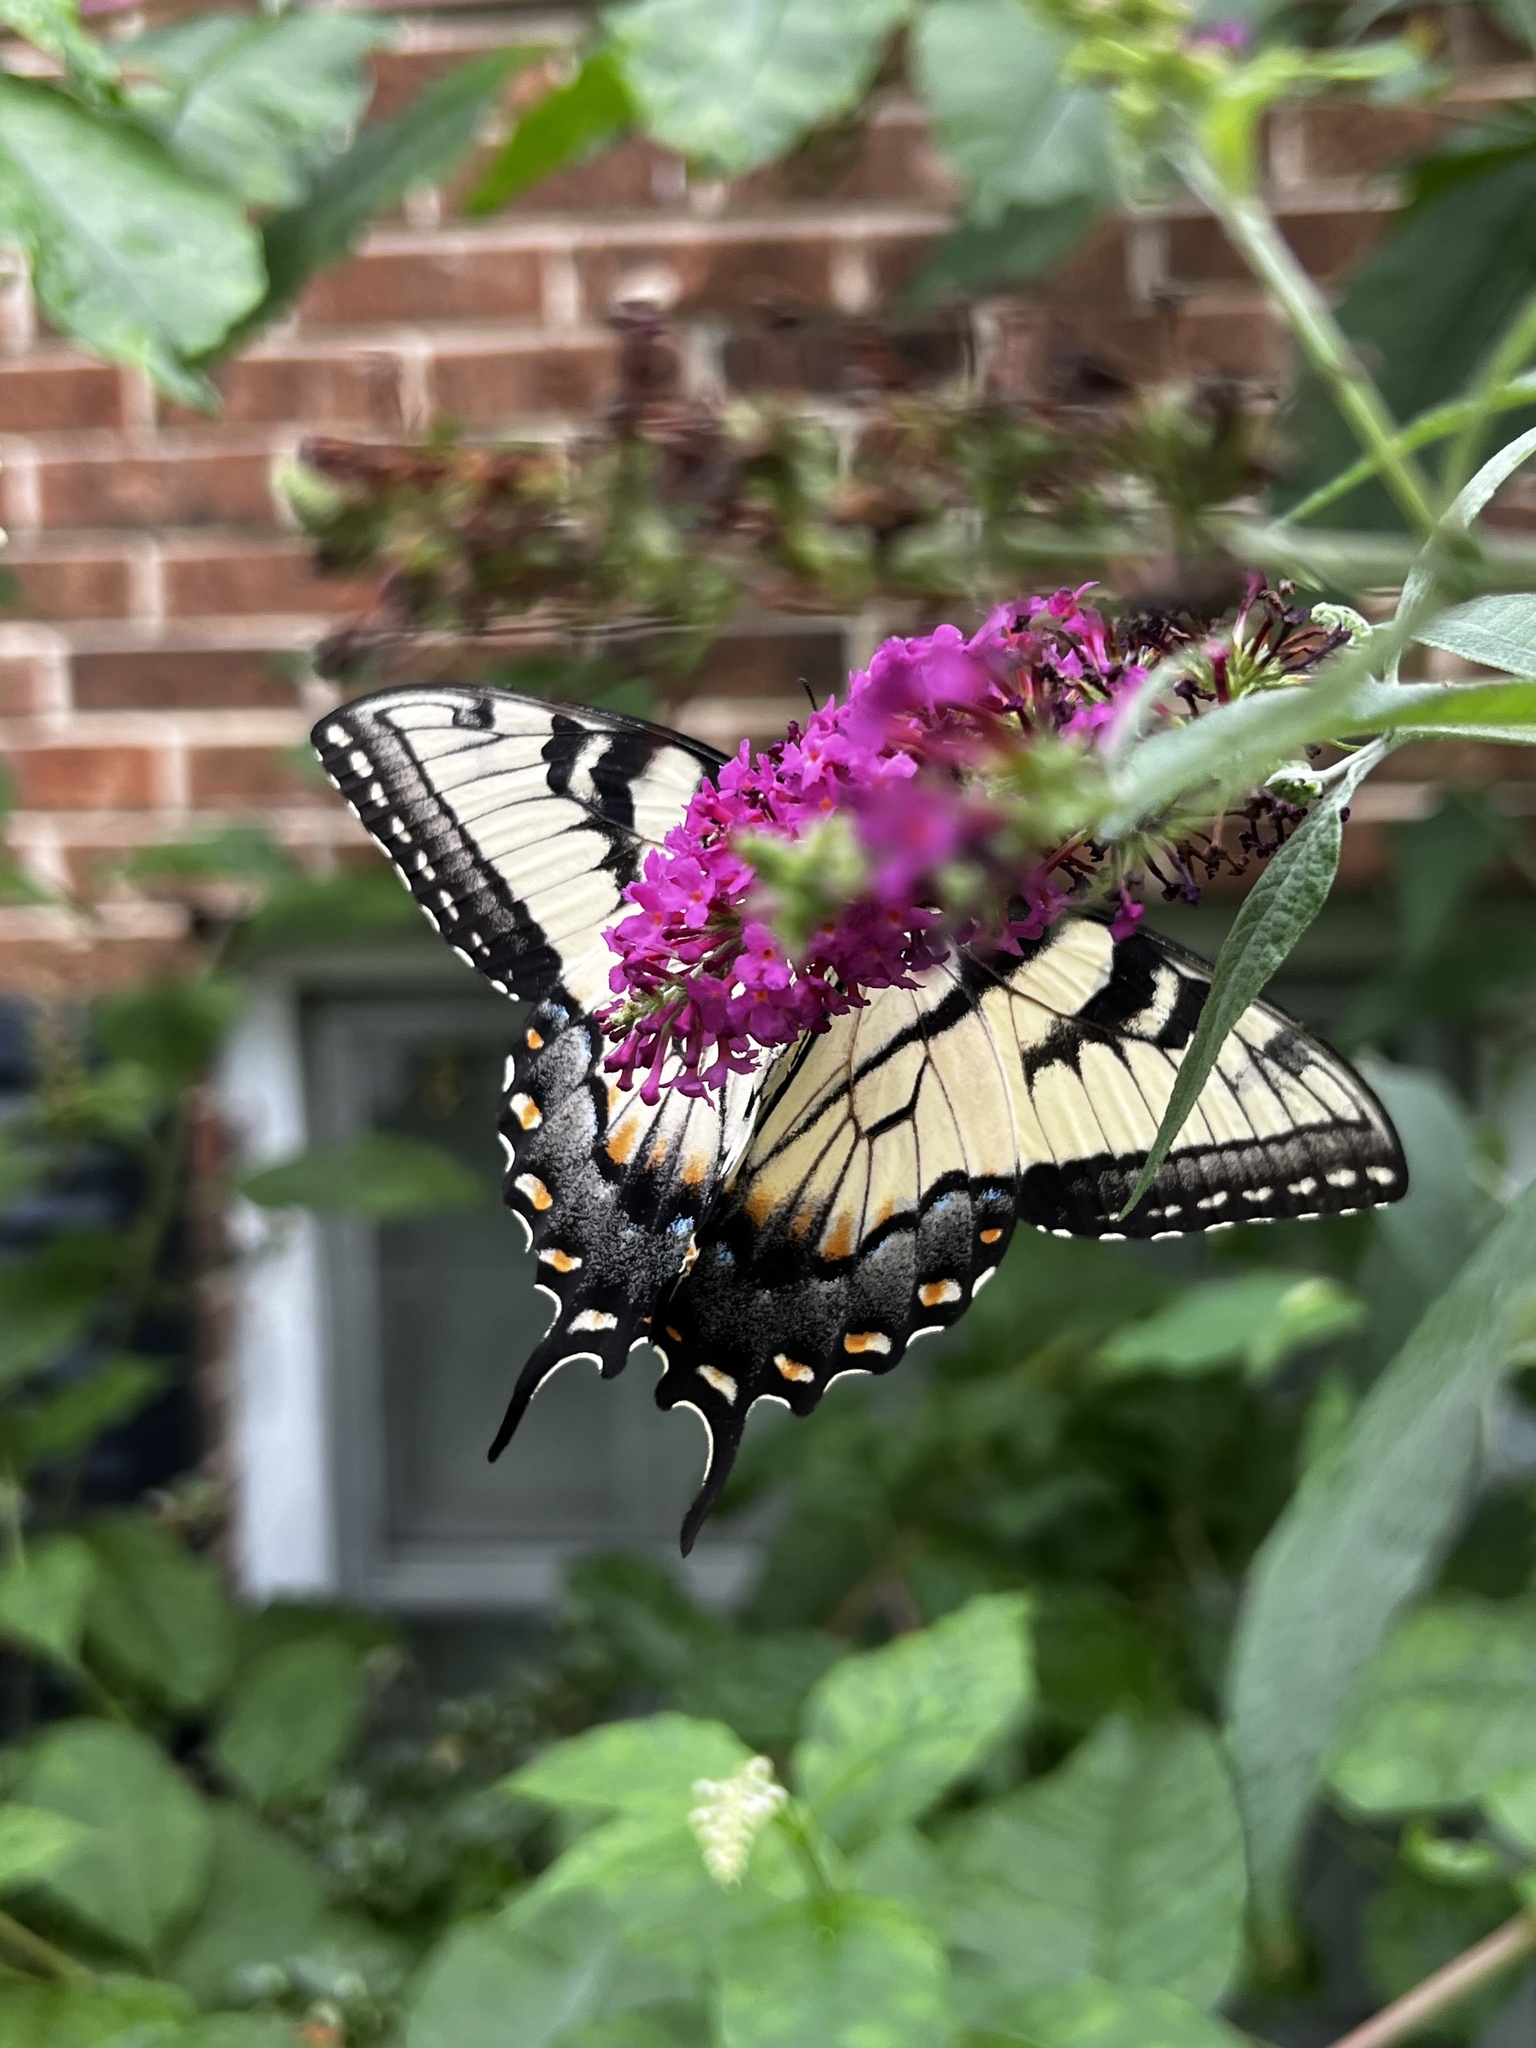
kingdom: Animalia
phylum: Arthropoda
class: Insecta
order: Lepidoptera
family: Papilionidae
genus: Papilio
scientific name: Papilio glaucus
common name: Tiger swallowtail
